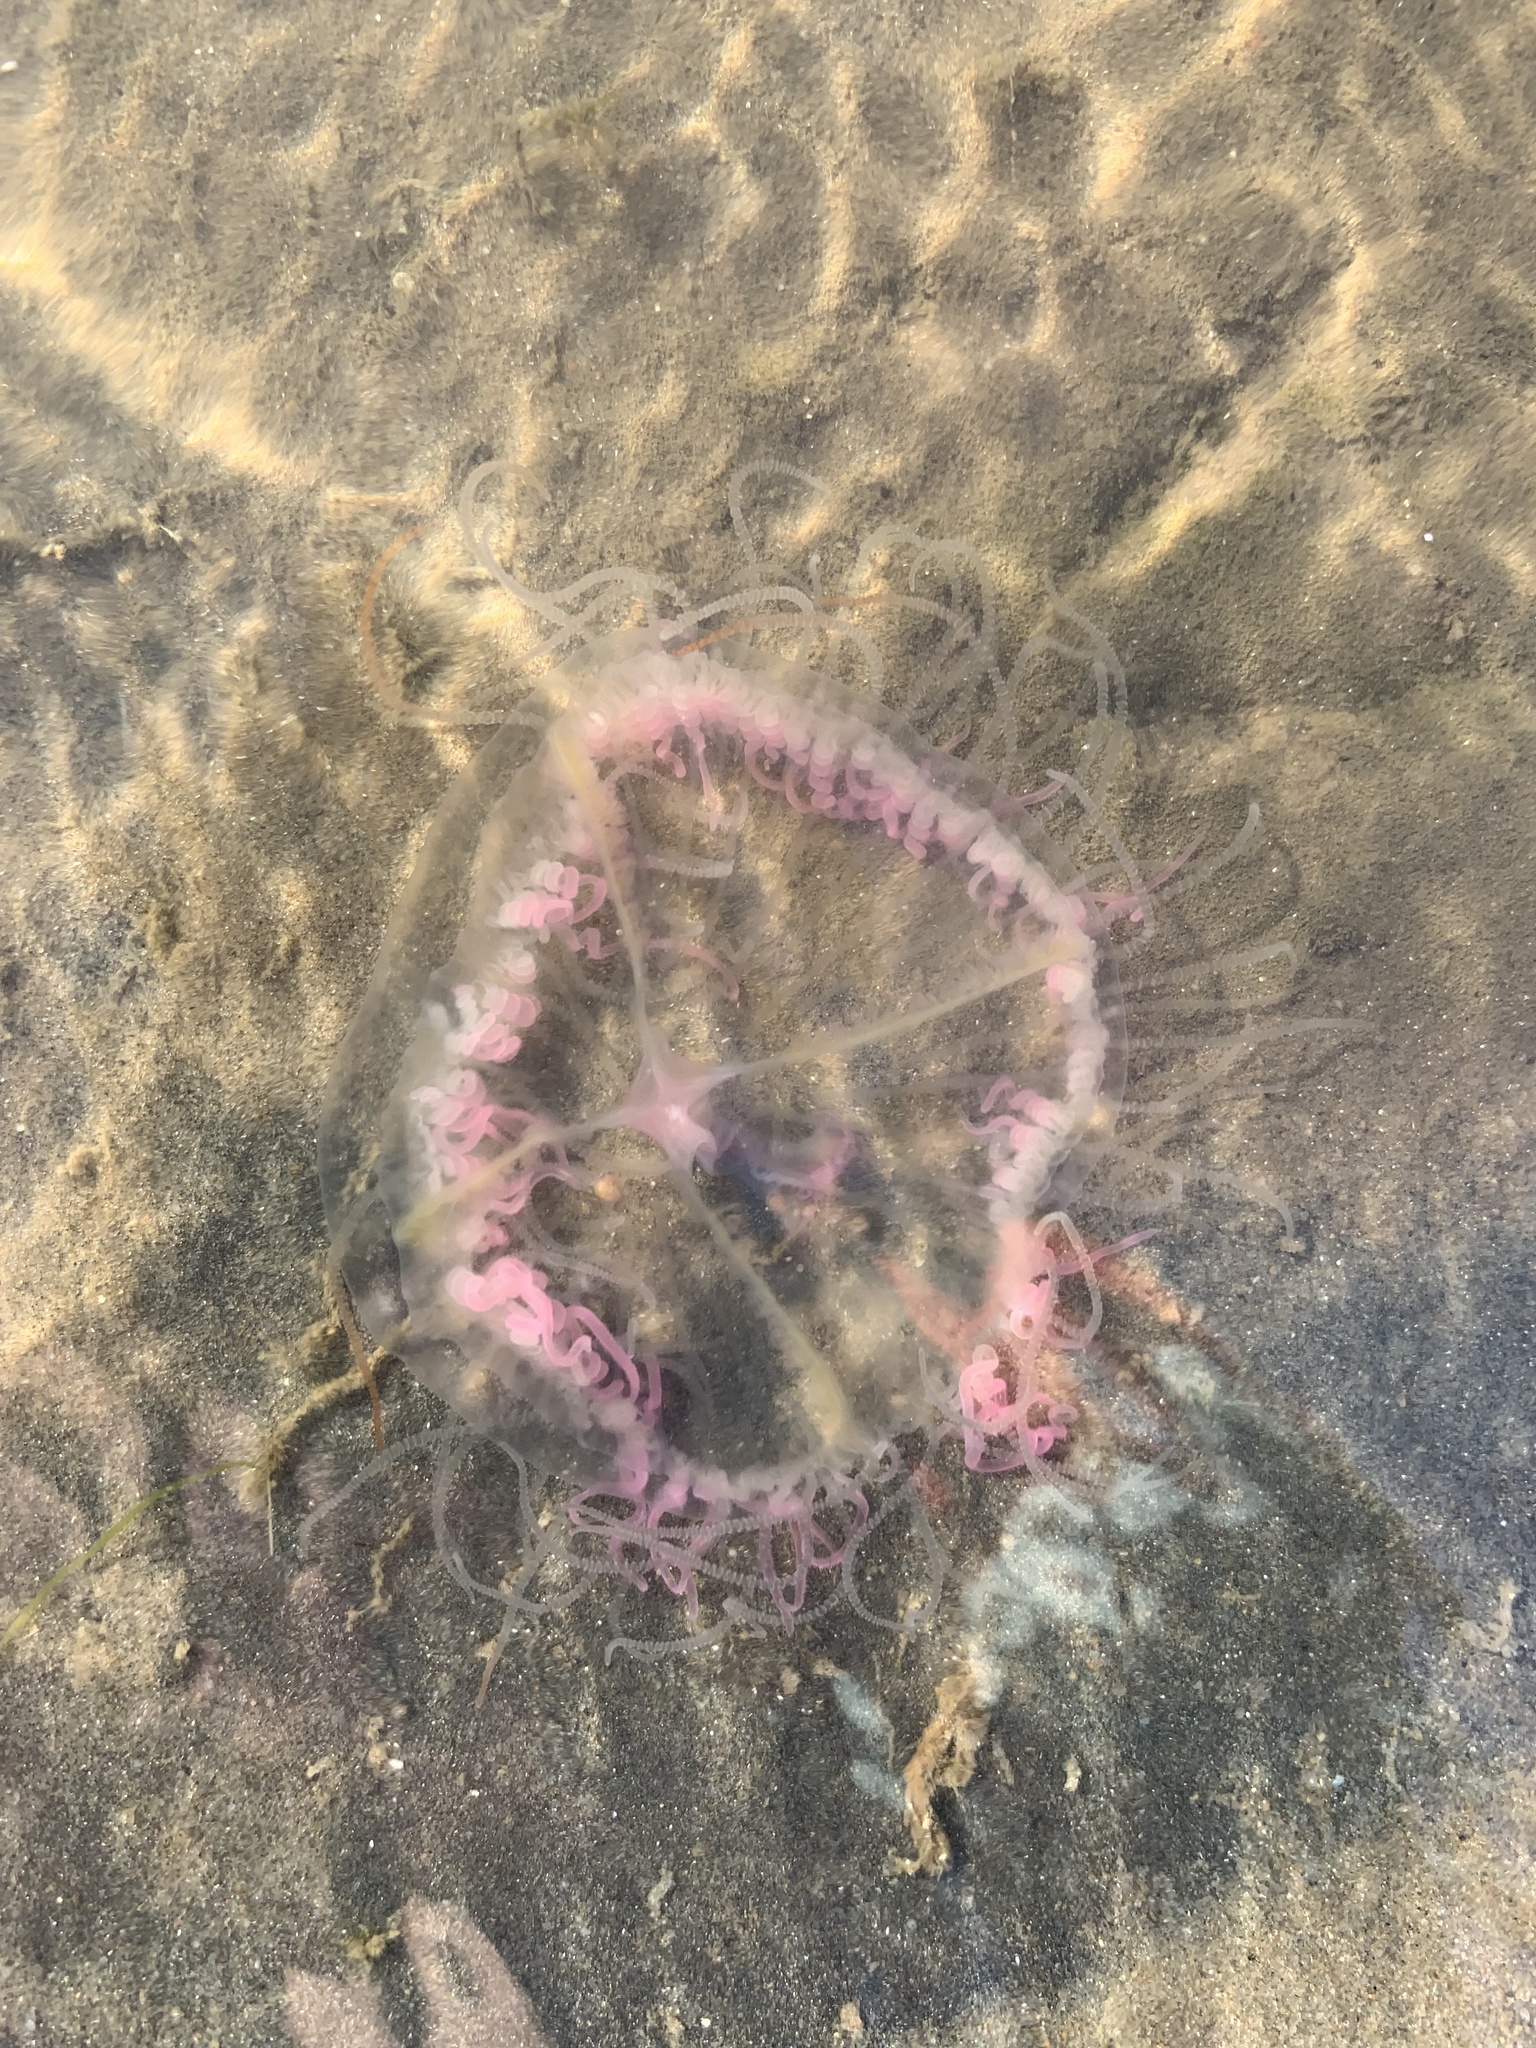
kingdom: Animalia
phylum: Cnidaria
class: Hydrozoa
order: Limnomedusae
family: Olindiidae
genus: Olindias
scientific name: Olindias sambaquiensis
